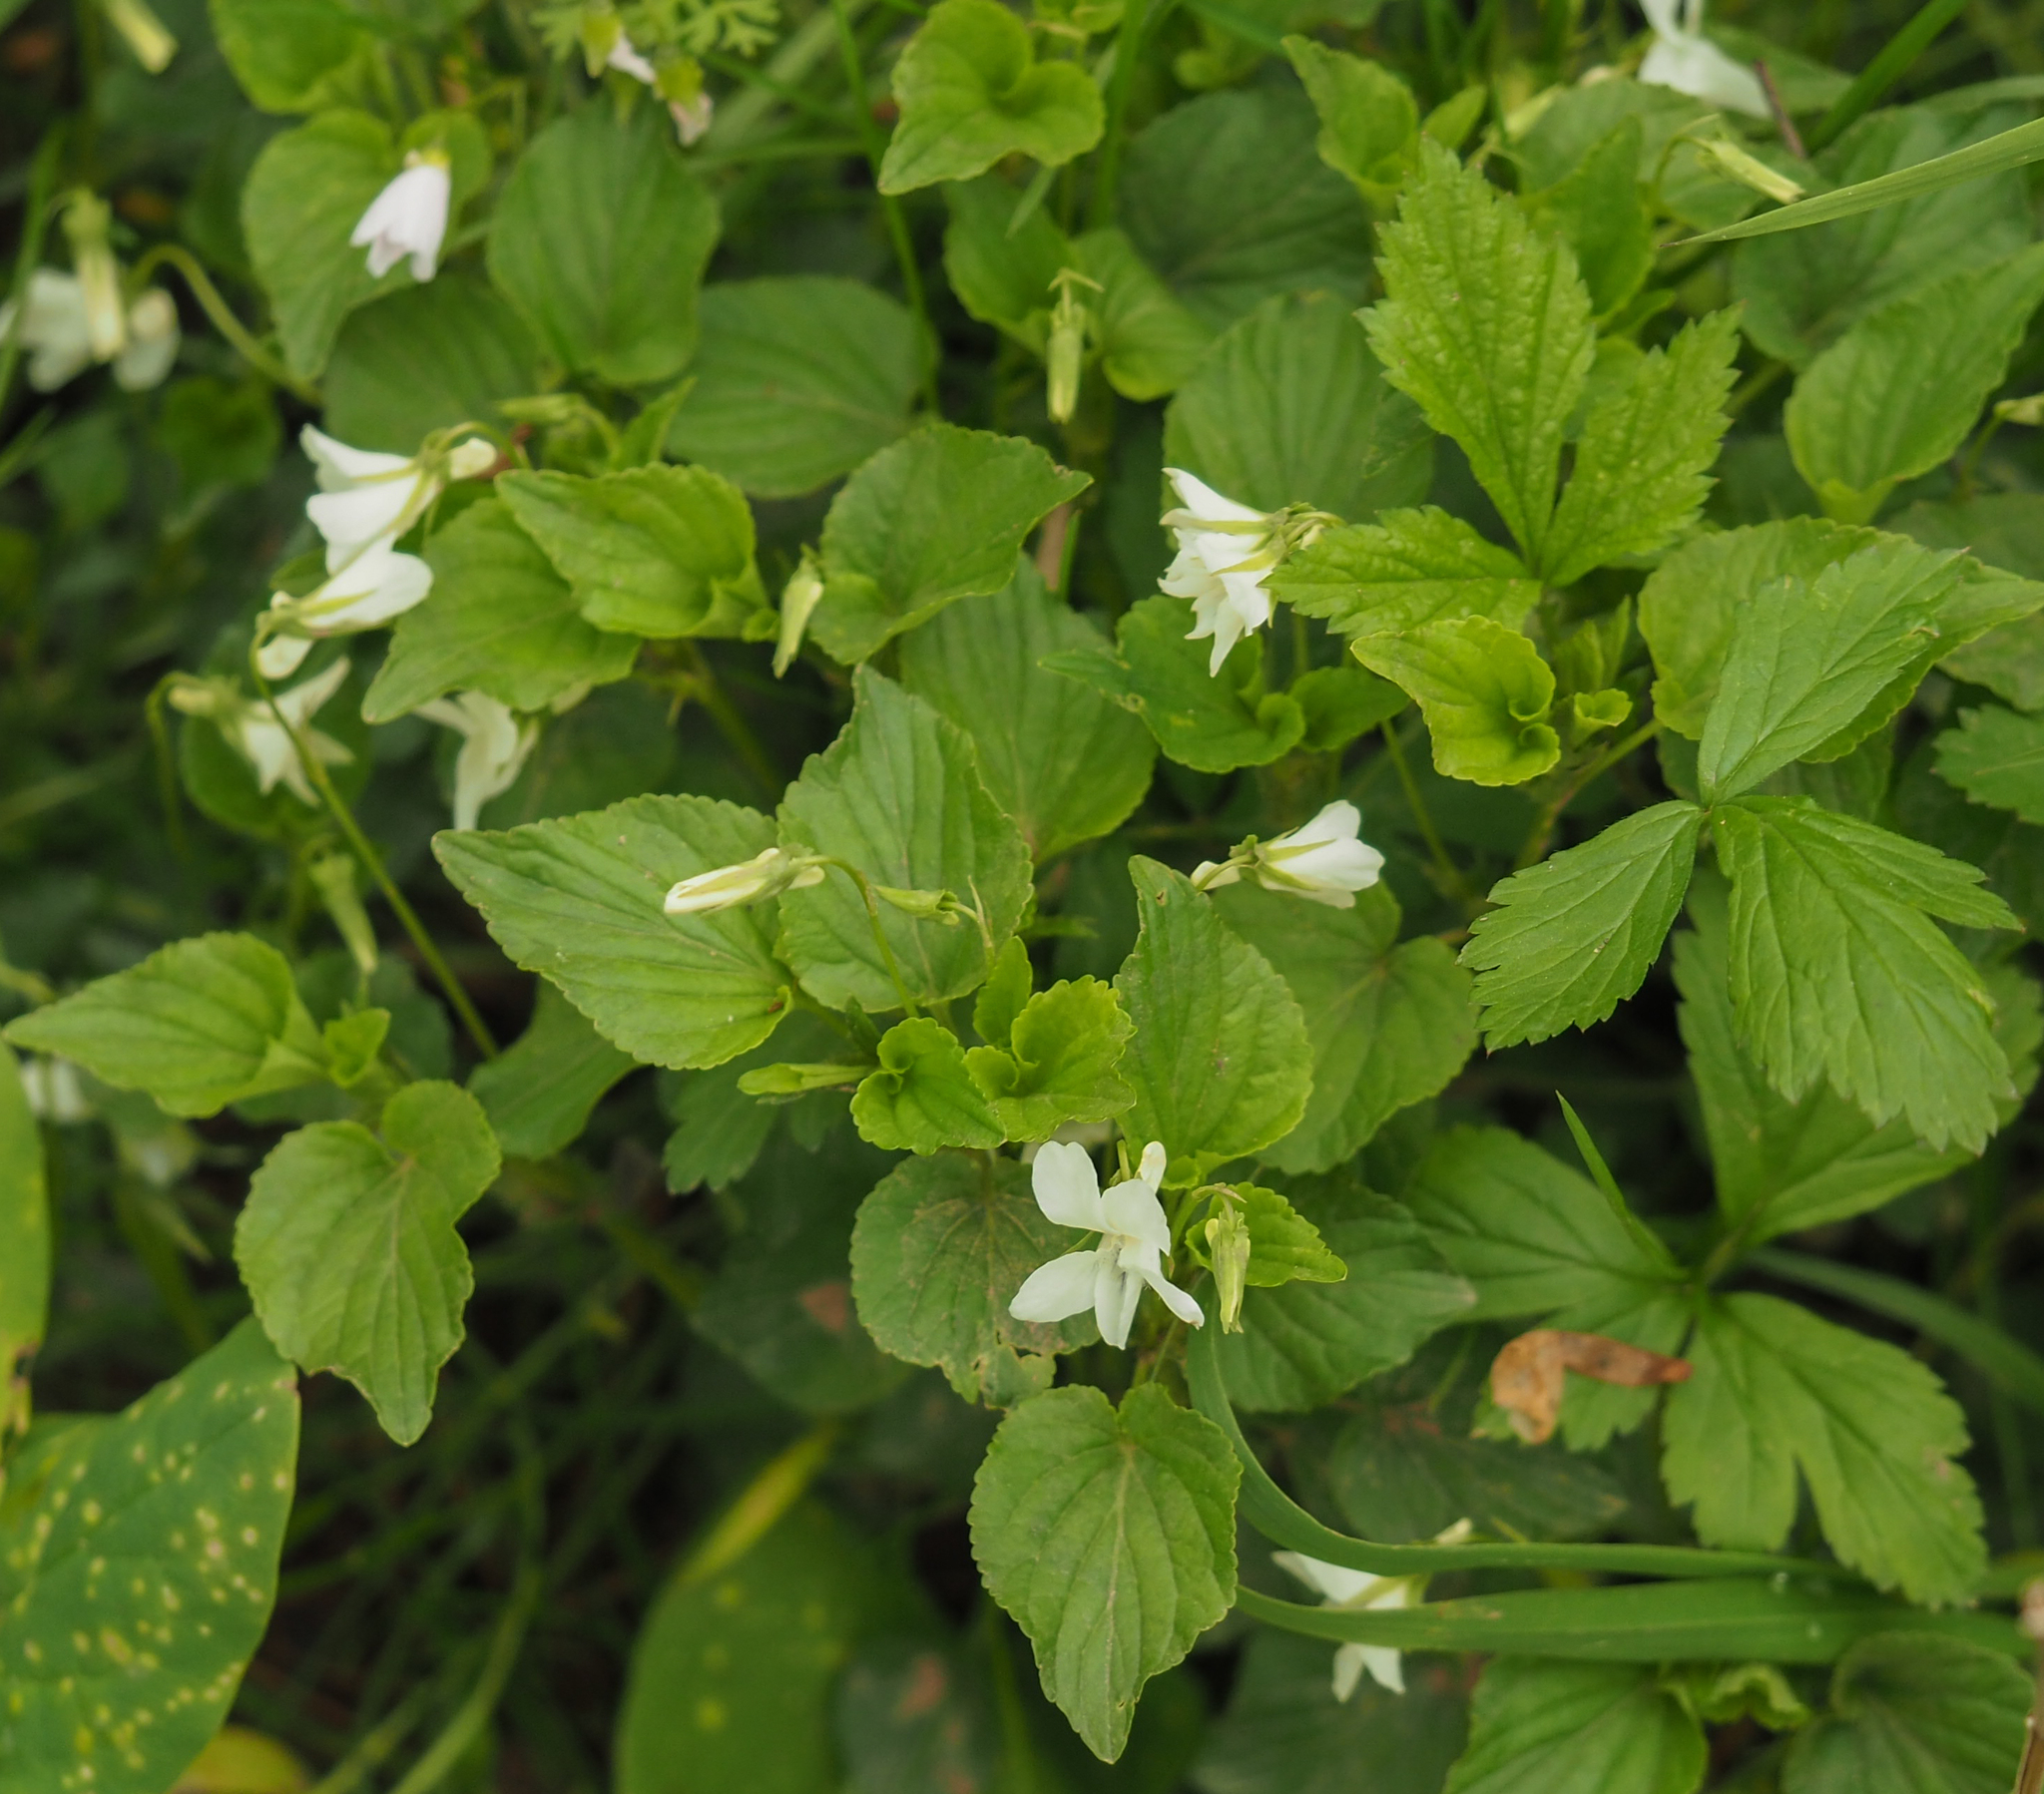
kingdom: Plantae
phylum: Tracheophyta
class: Magnoliopsida
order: Malpighiales
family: Violaceae
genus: Viola
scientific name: Viola striata
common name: Cream violet
